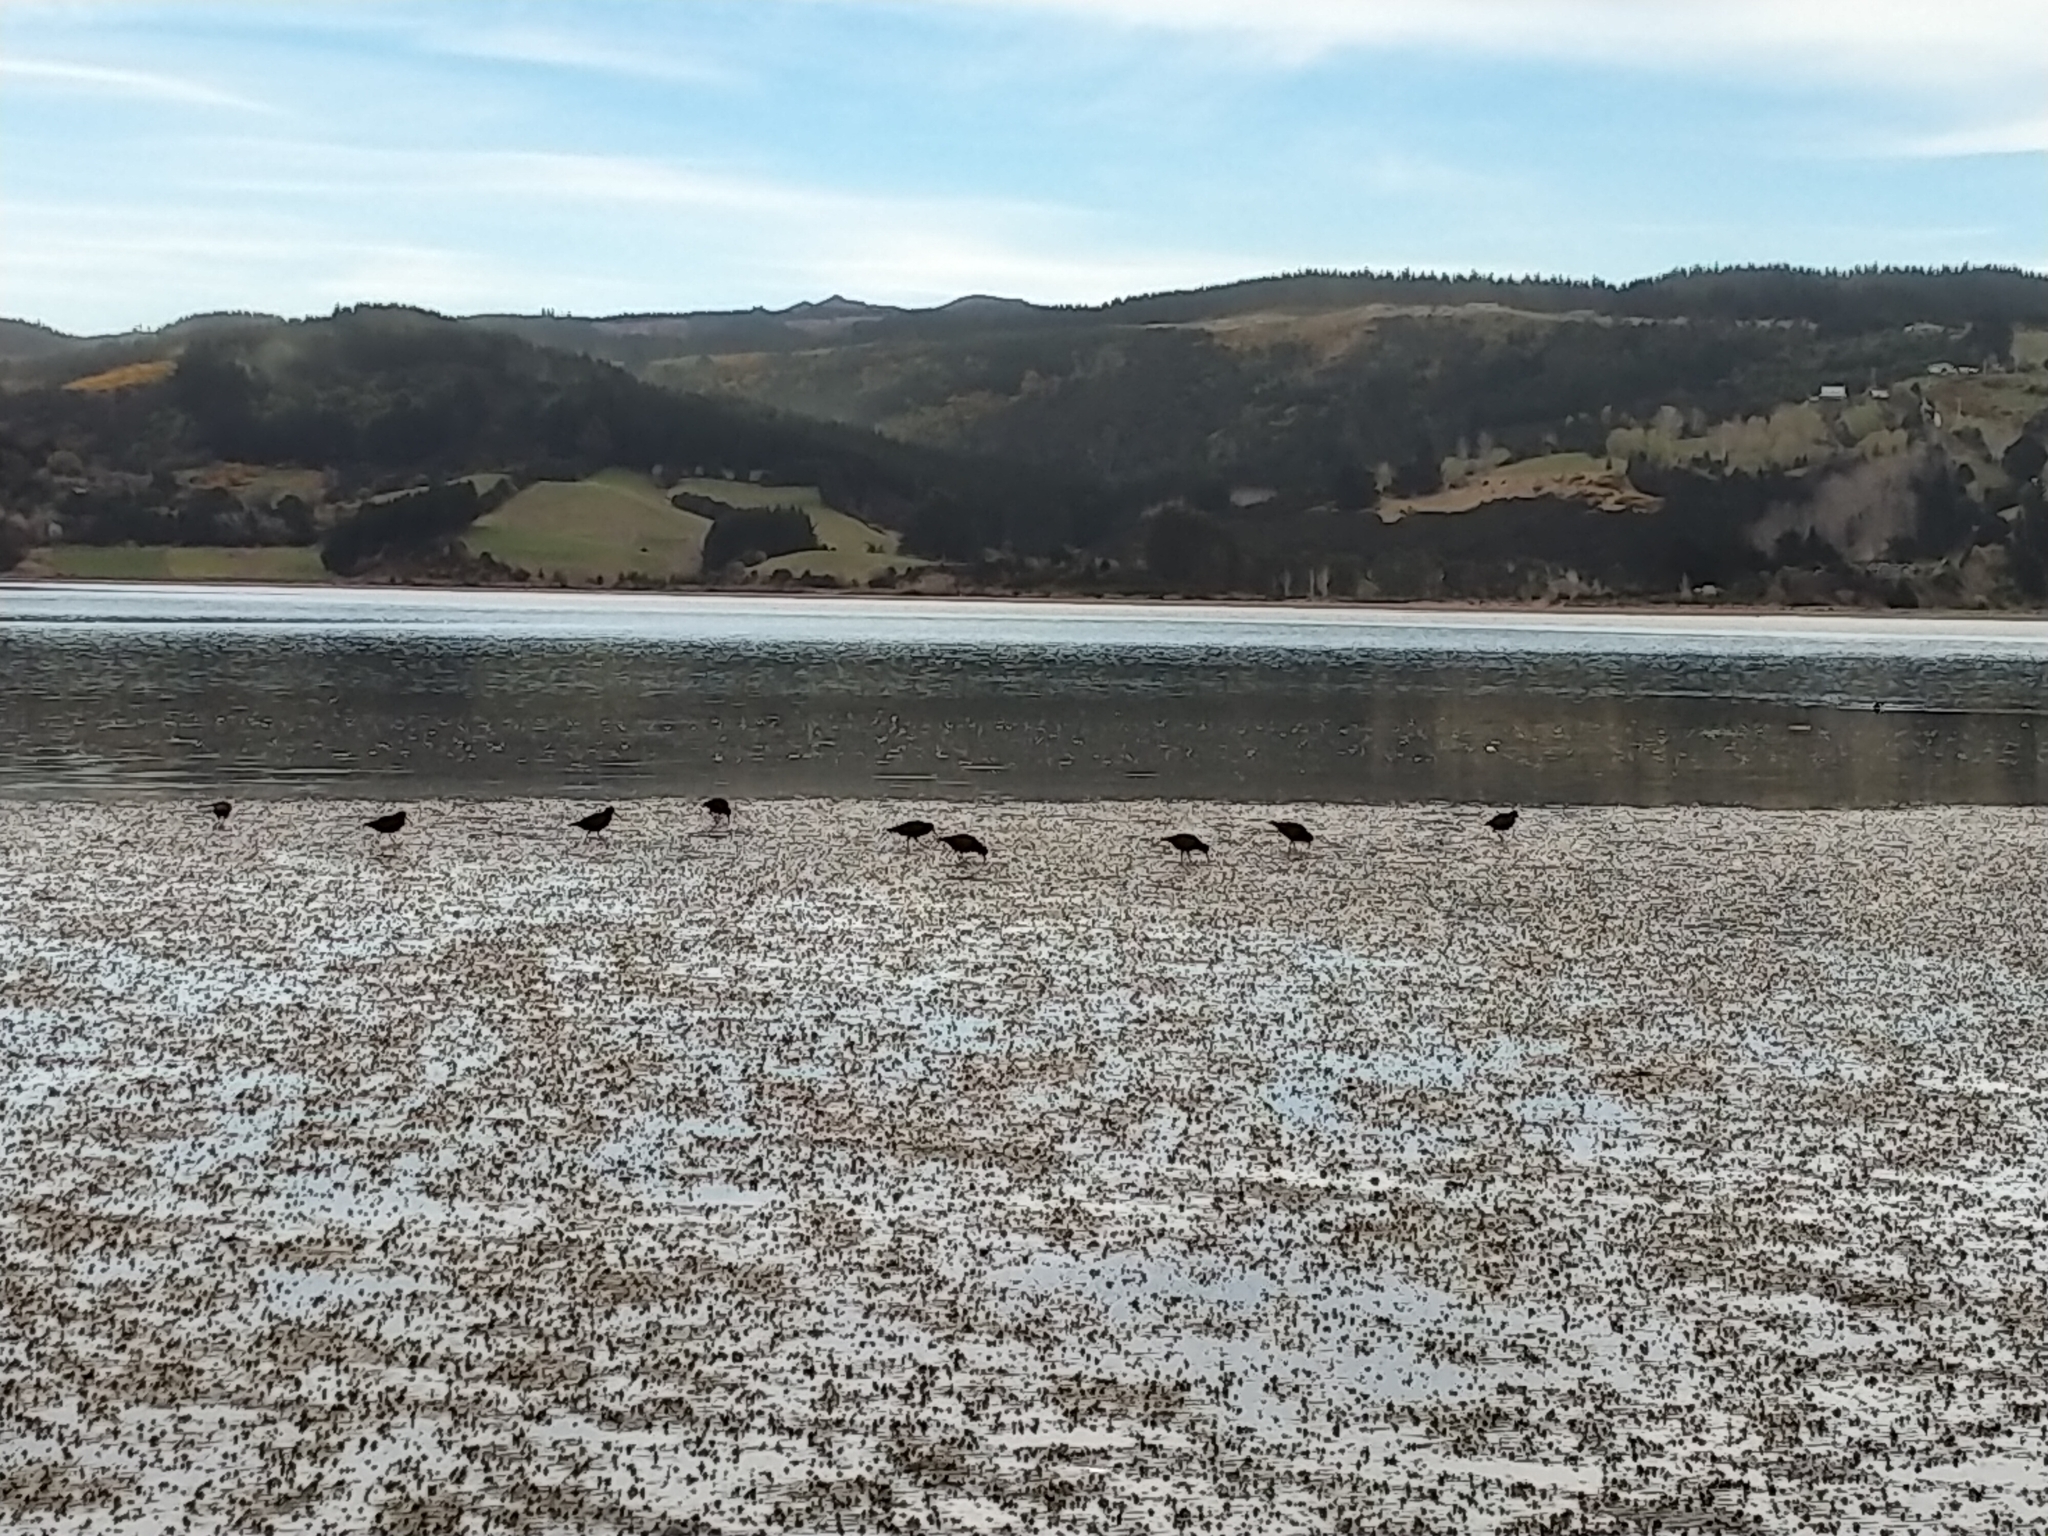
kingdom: Animalia
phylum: Chordata
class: Aves
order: Charadriiformes
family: Haematopodidae
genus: Haematopus
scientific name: Haematopus unicolor
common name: Variable oystercatcher
